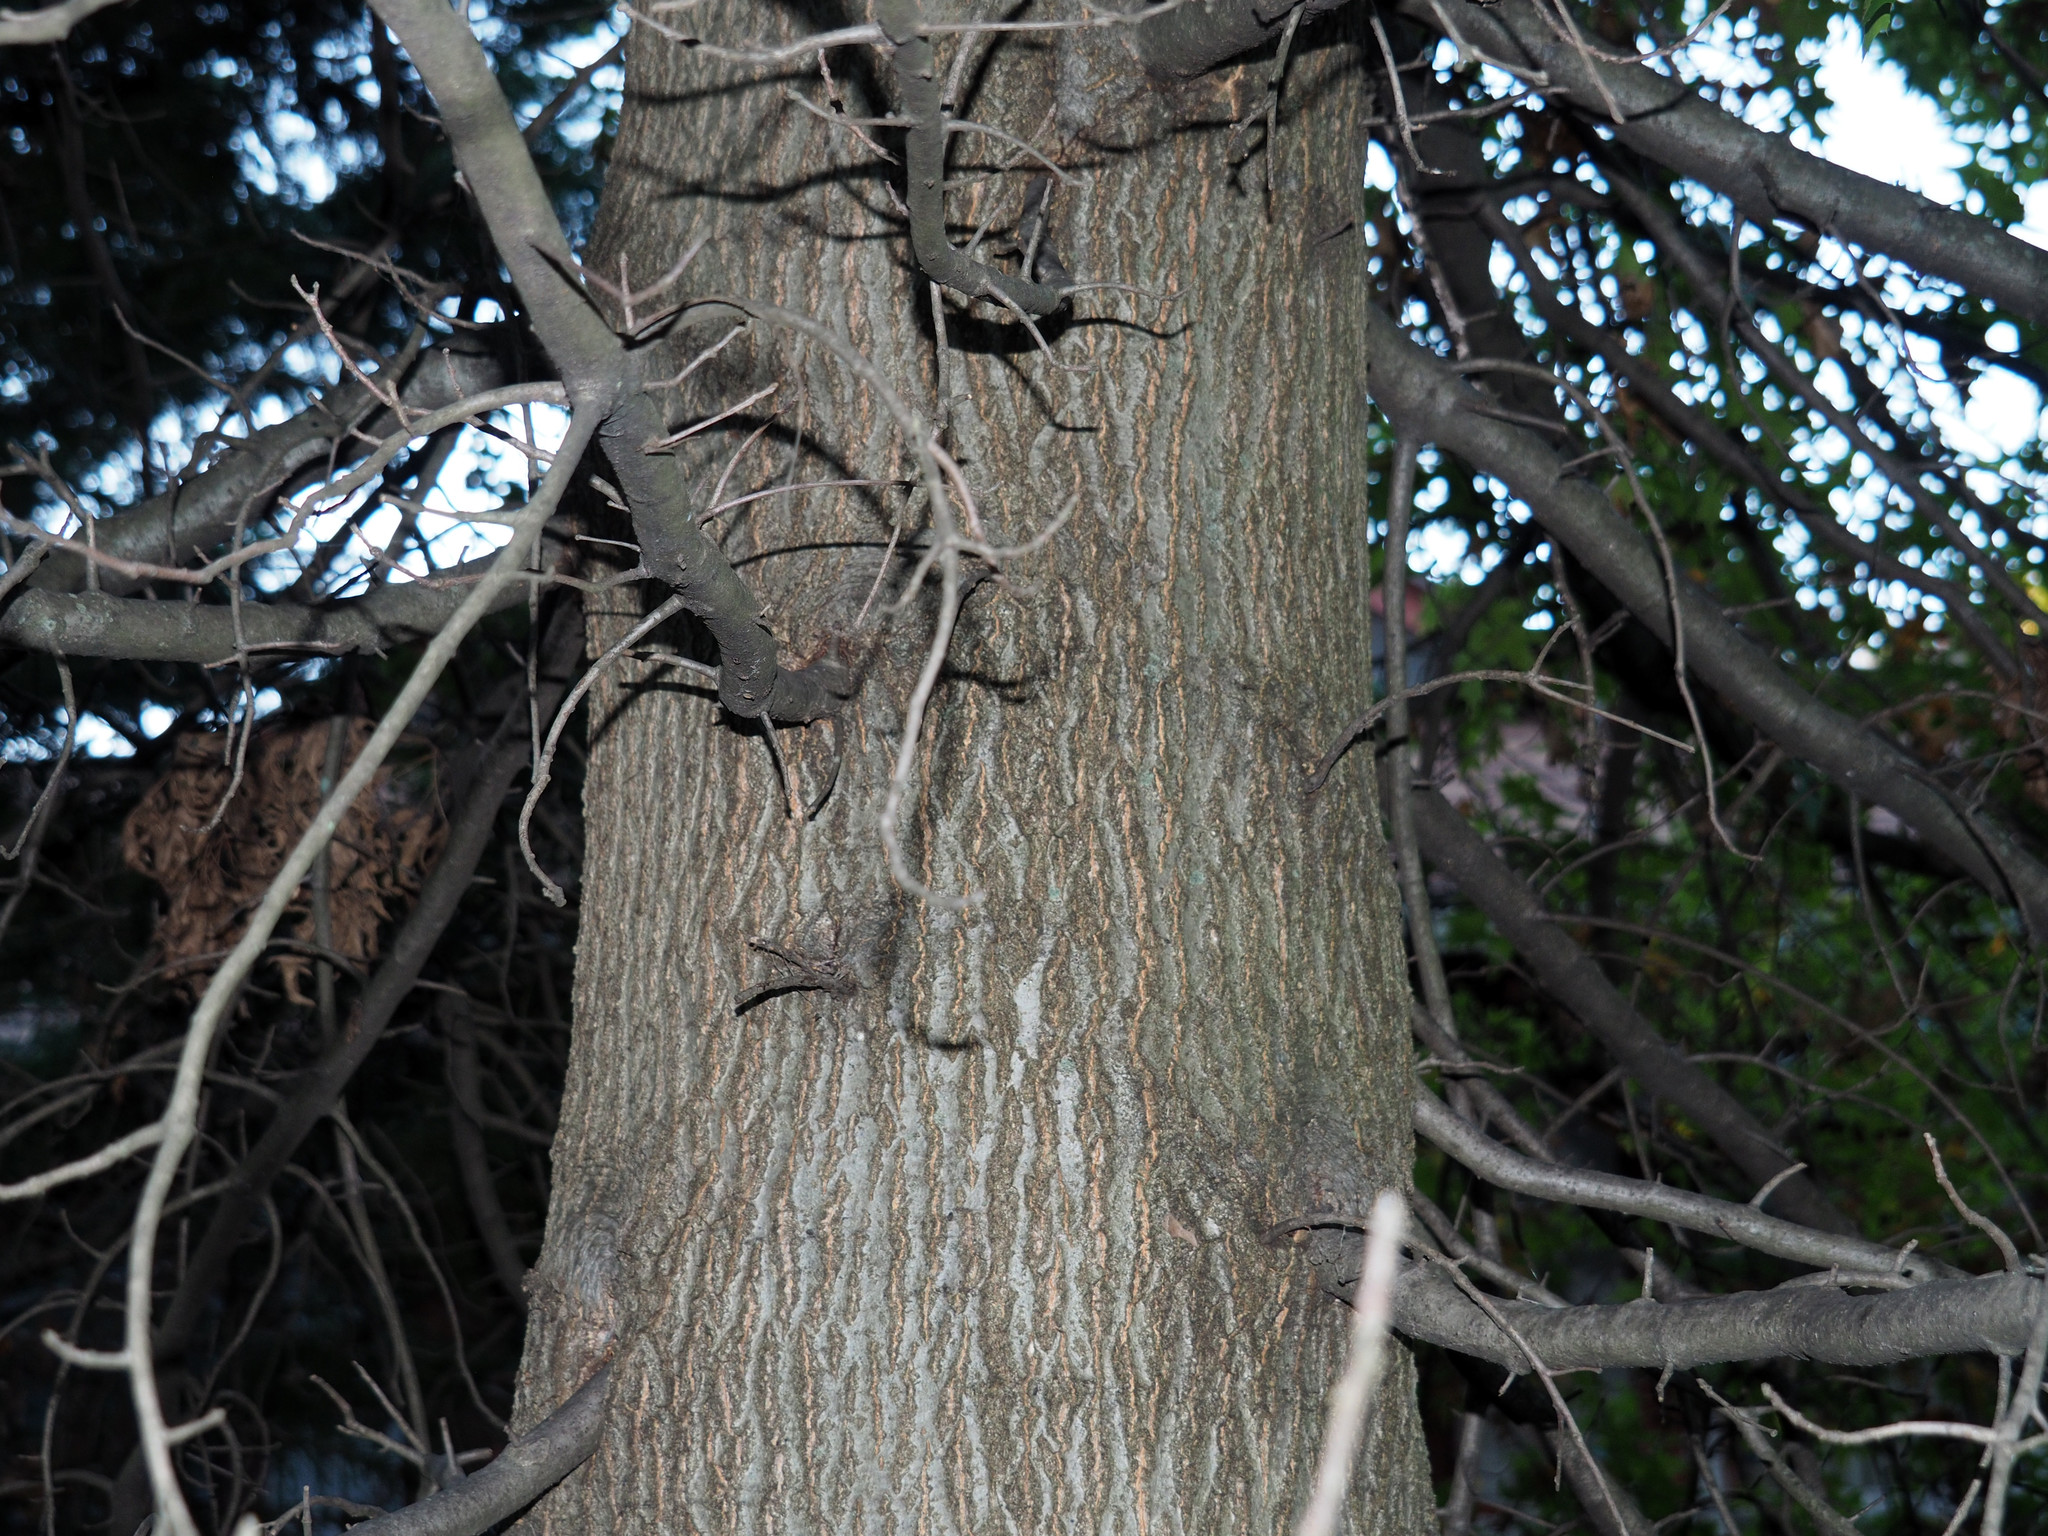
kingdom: Plantae
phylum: Tracheophyta
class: Magnoliopsida
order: Fagales
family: Fagaceae
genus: Quercus
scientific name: Quercus palustris
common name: Pin oak
